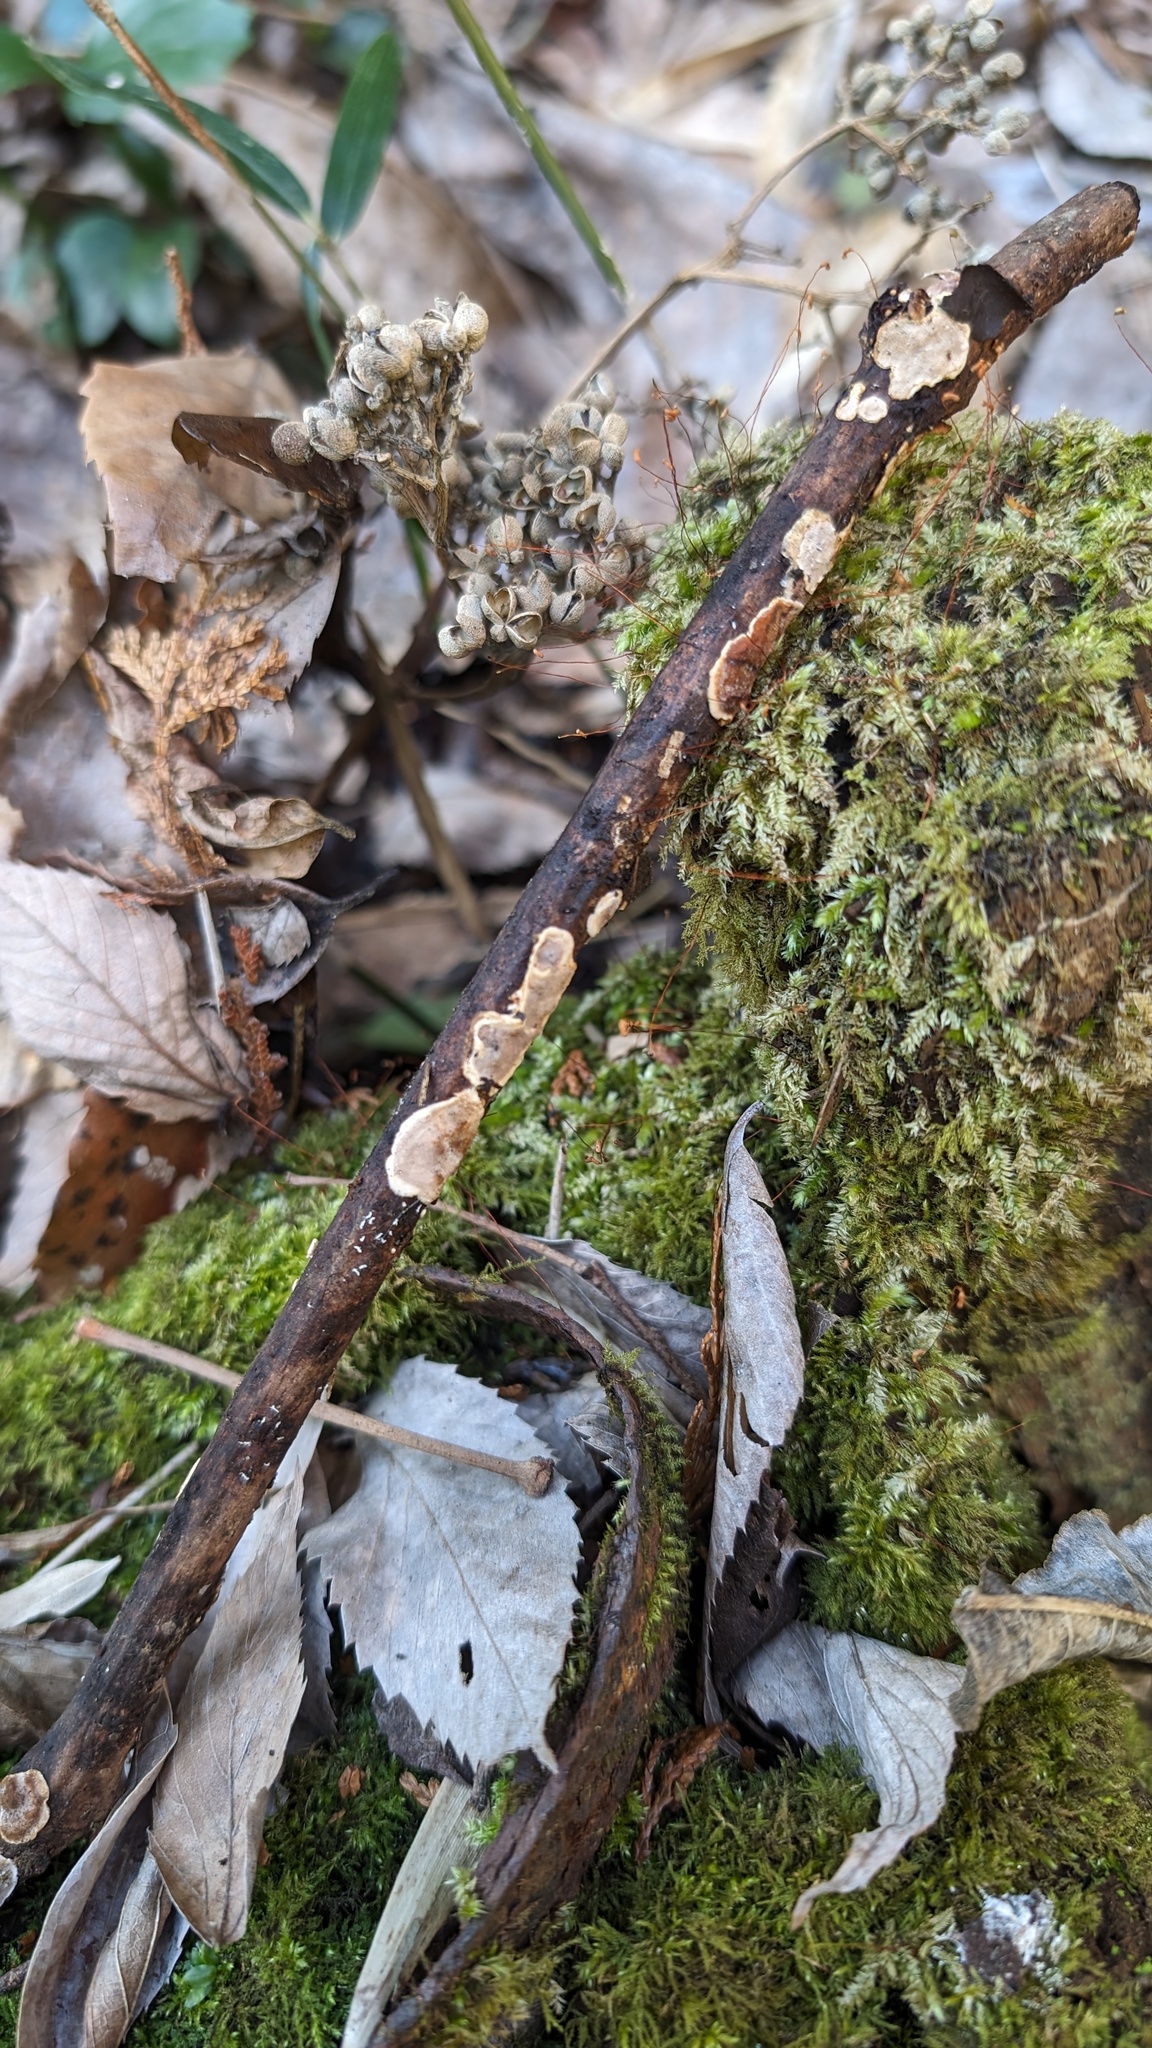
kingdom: Fungi
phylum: Basidiomycota
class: Agaricomycetes
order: Auriculariales
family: Auriculariaceae
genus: Heterochaete
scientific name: Heterochaete delicata
